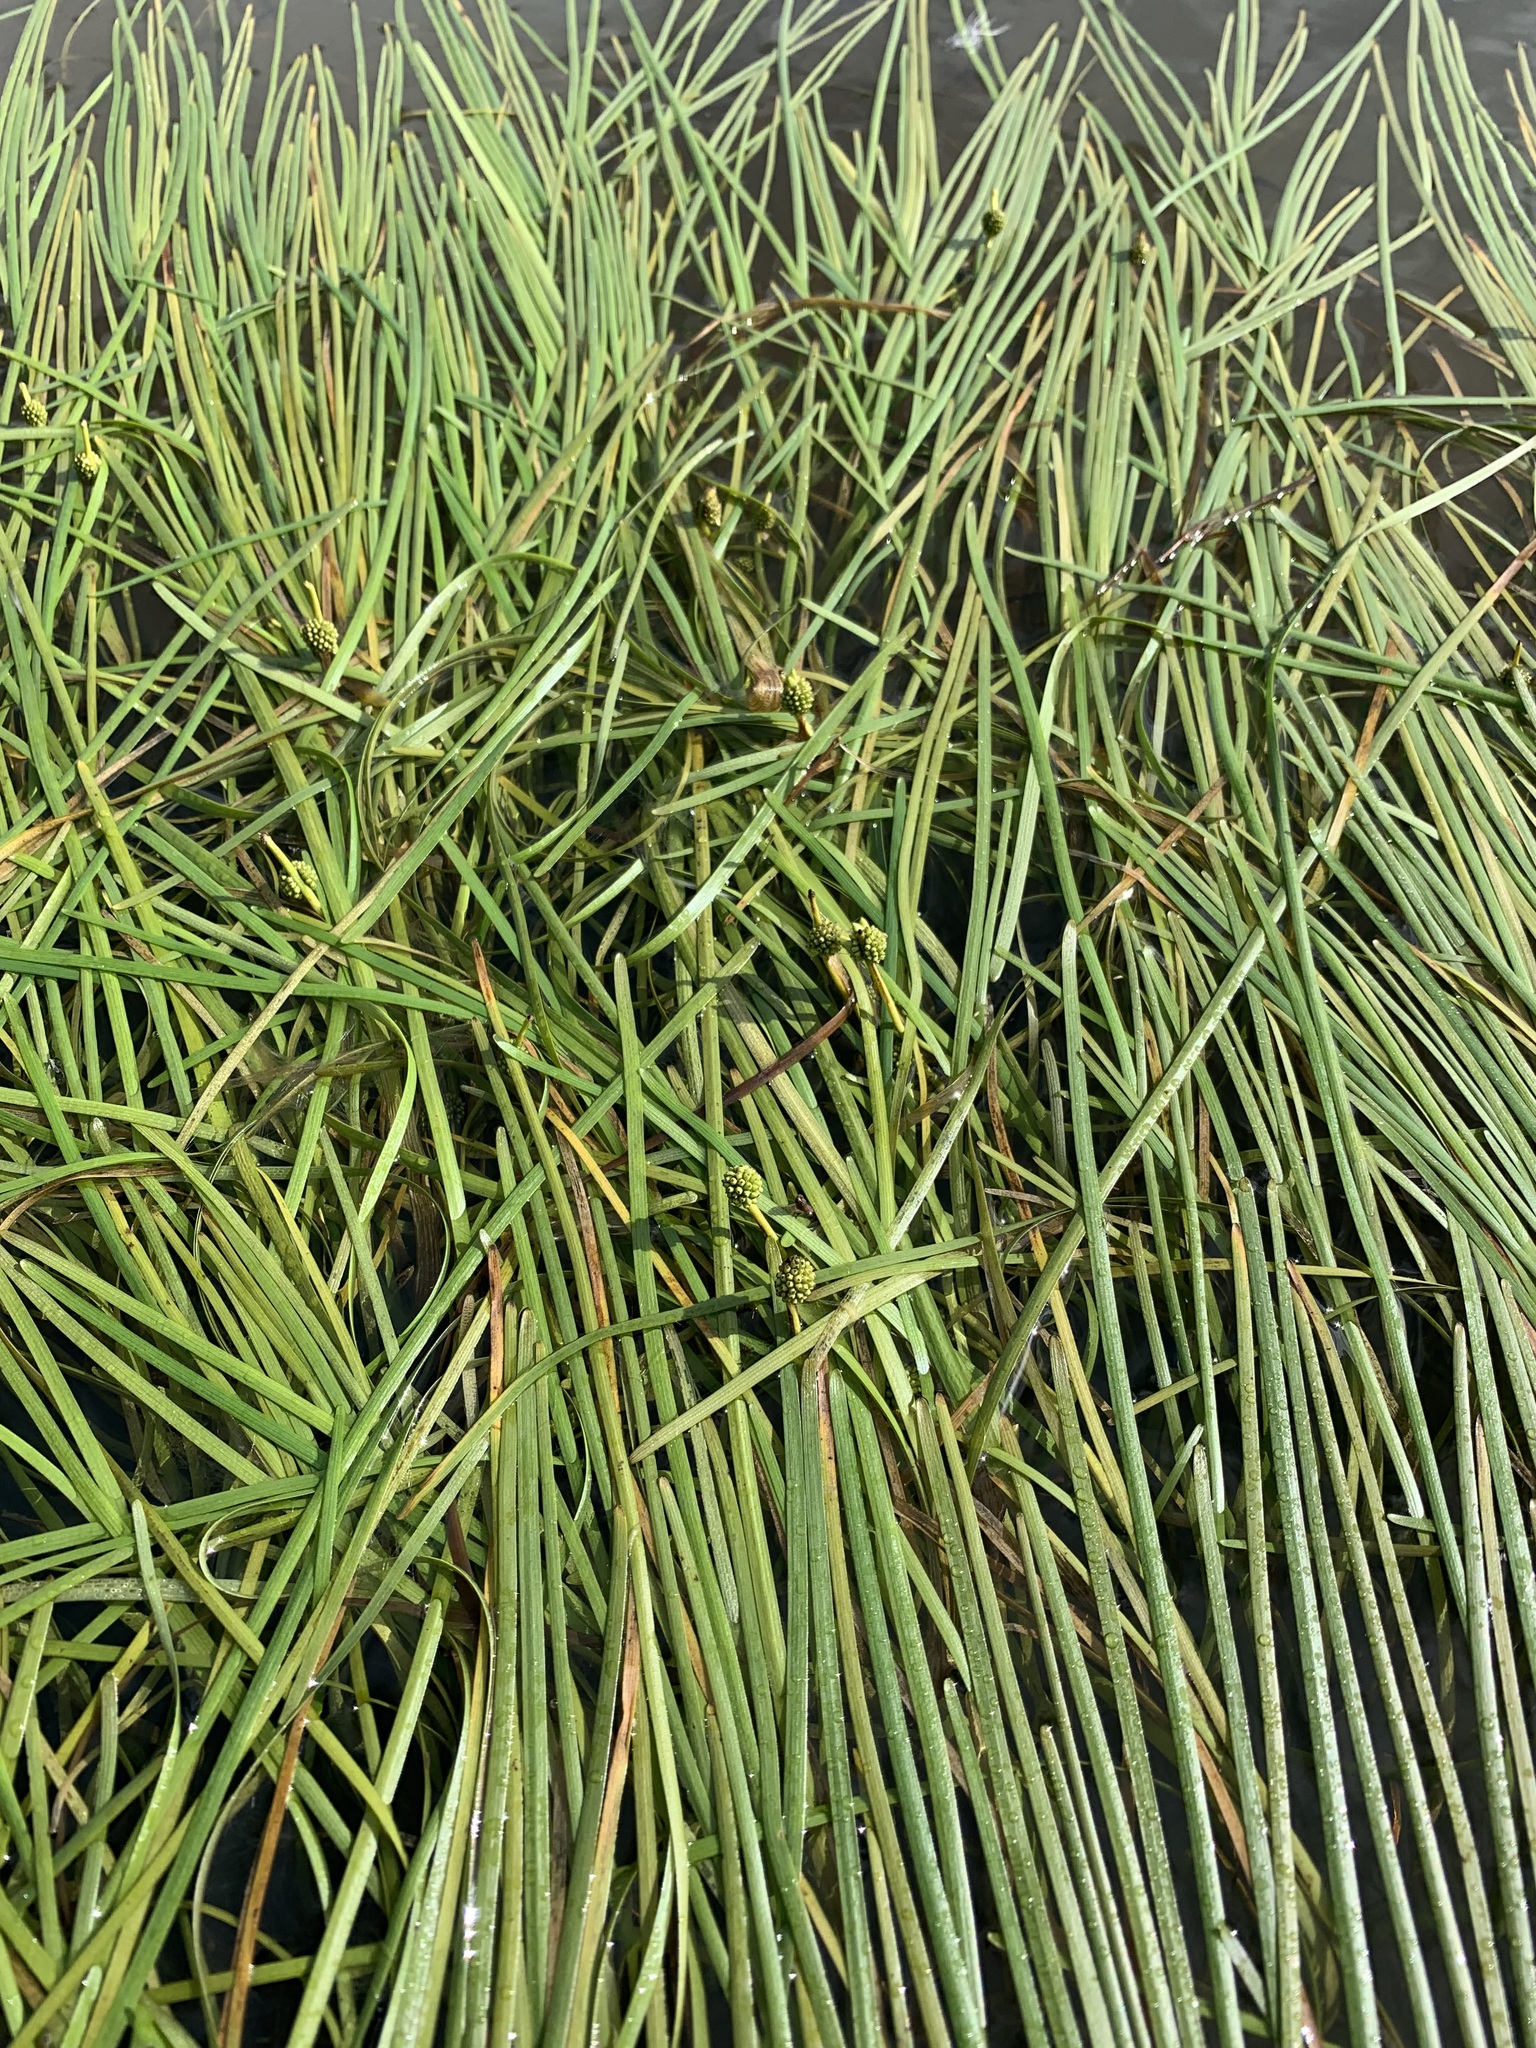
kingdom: Plantae
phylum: Tracheophyta
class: Liliopsida
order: Poales
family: Typhaceae
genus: Sparganium
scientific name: Sparganium hyperboreum
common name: Arctic burreed
